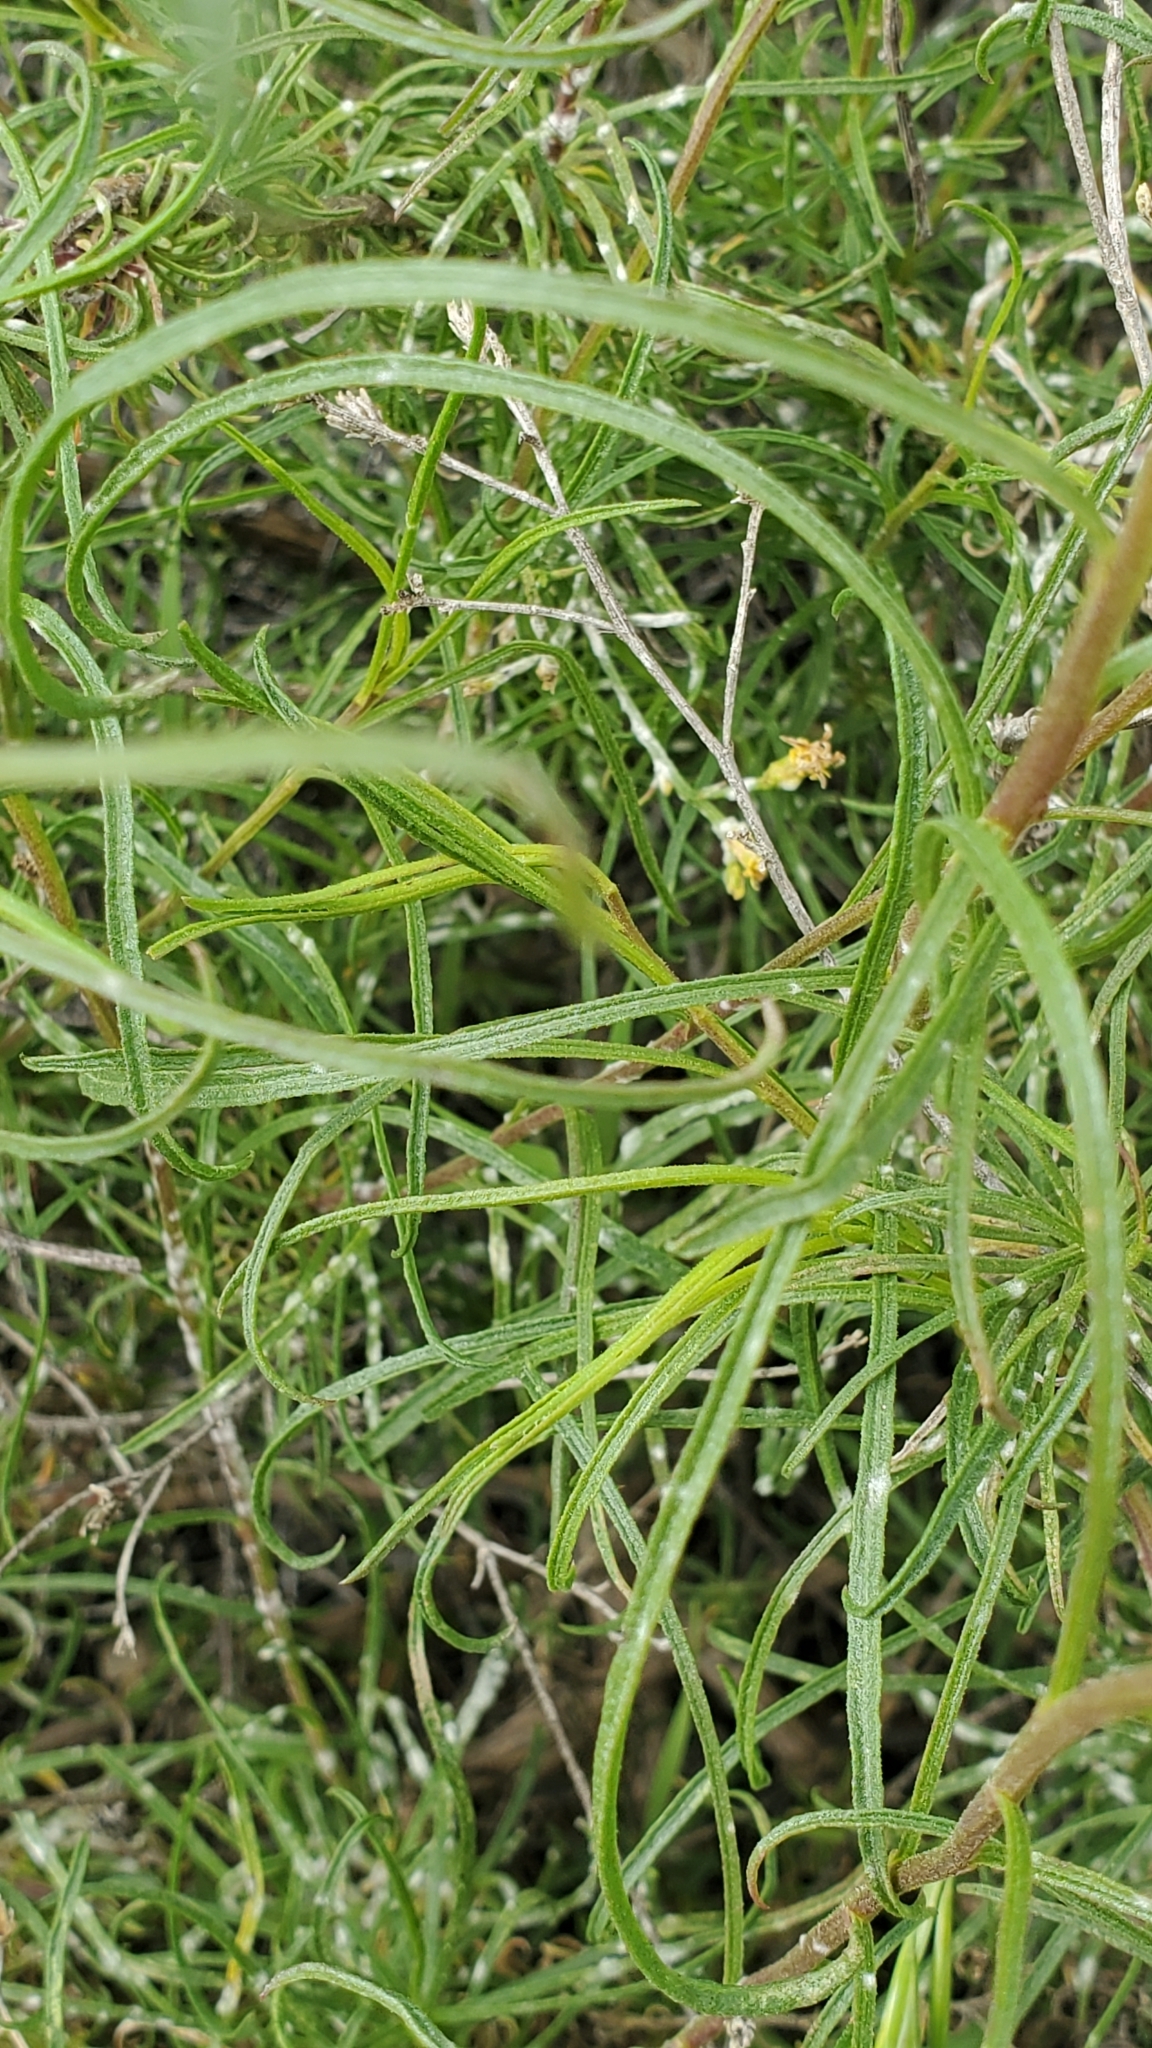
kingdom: Plantae
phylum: Tracheophyta
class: Magnoliopsida
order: Asterales
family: Asteraceae
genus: Gutierrezia
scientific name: Gutierrezia californica
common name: California matchweed
